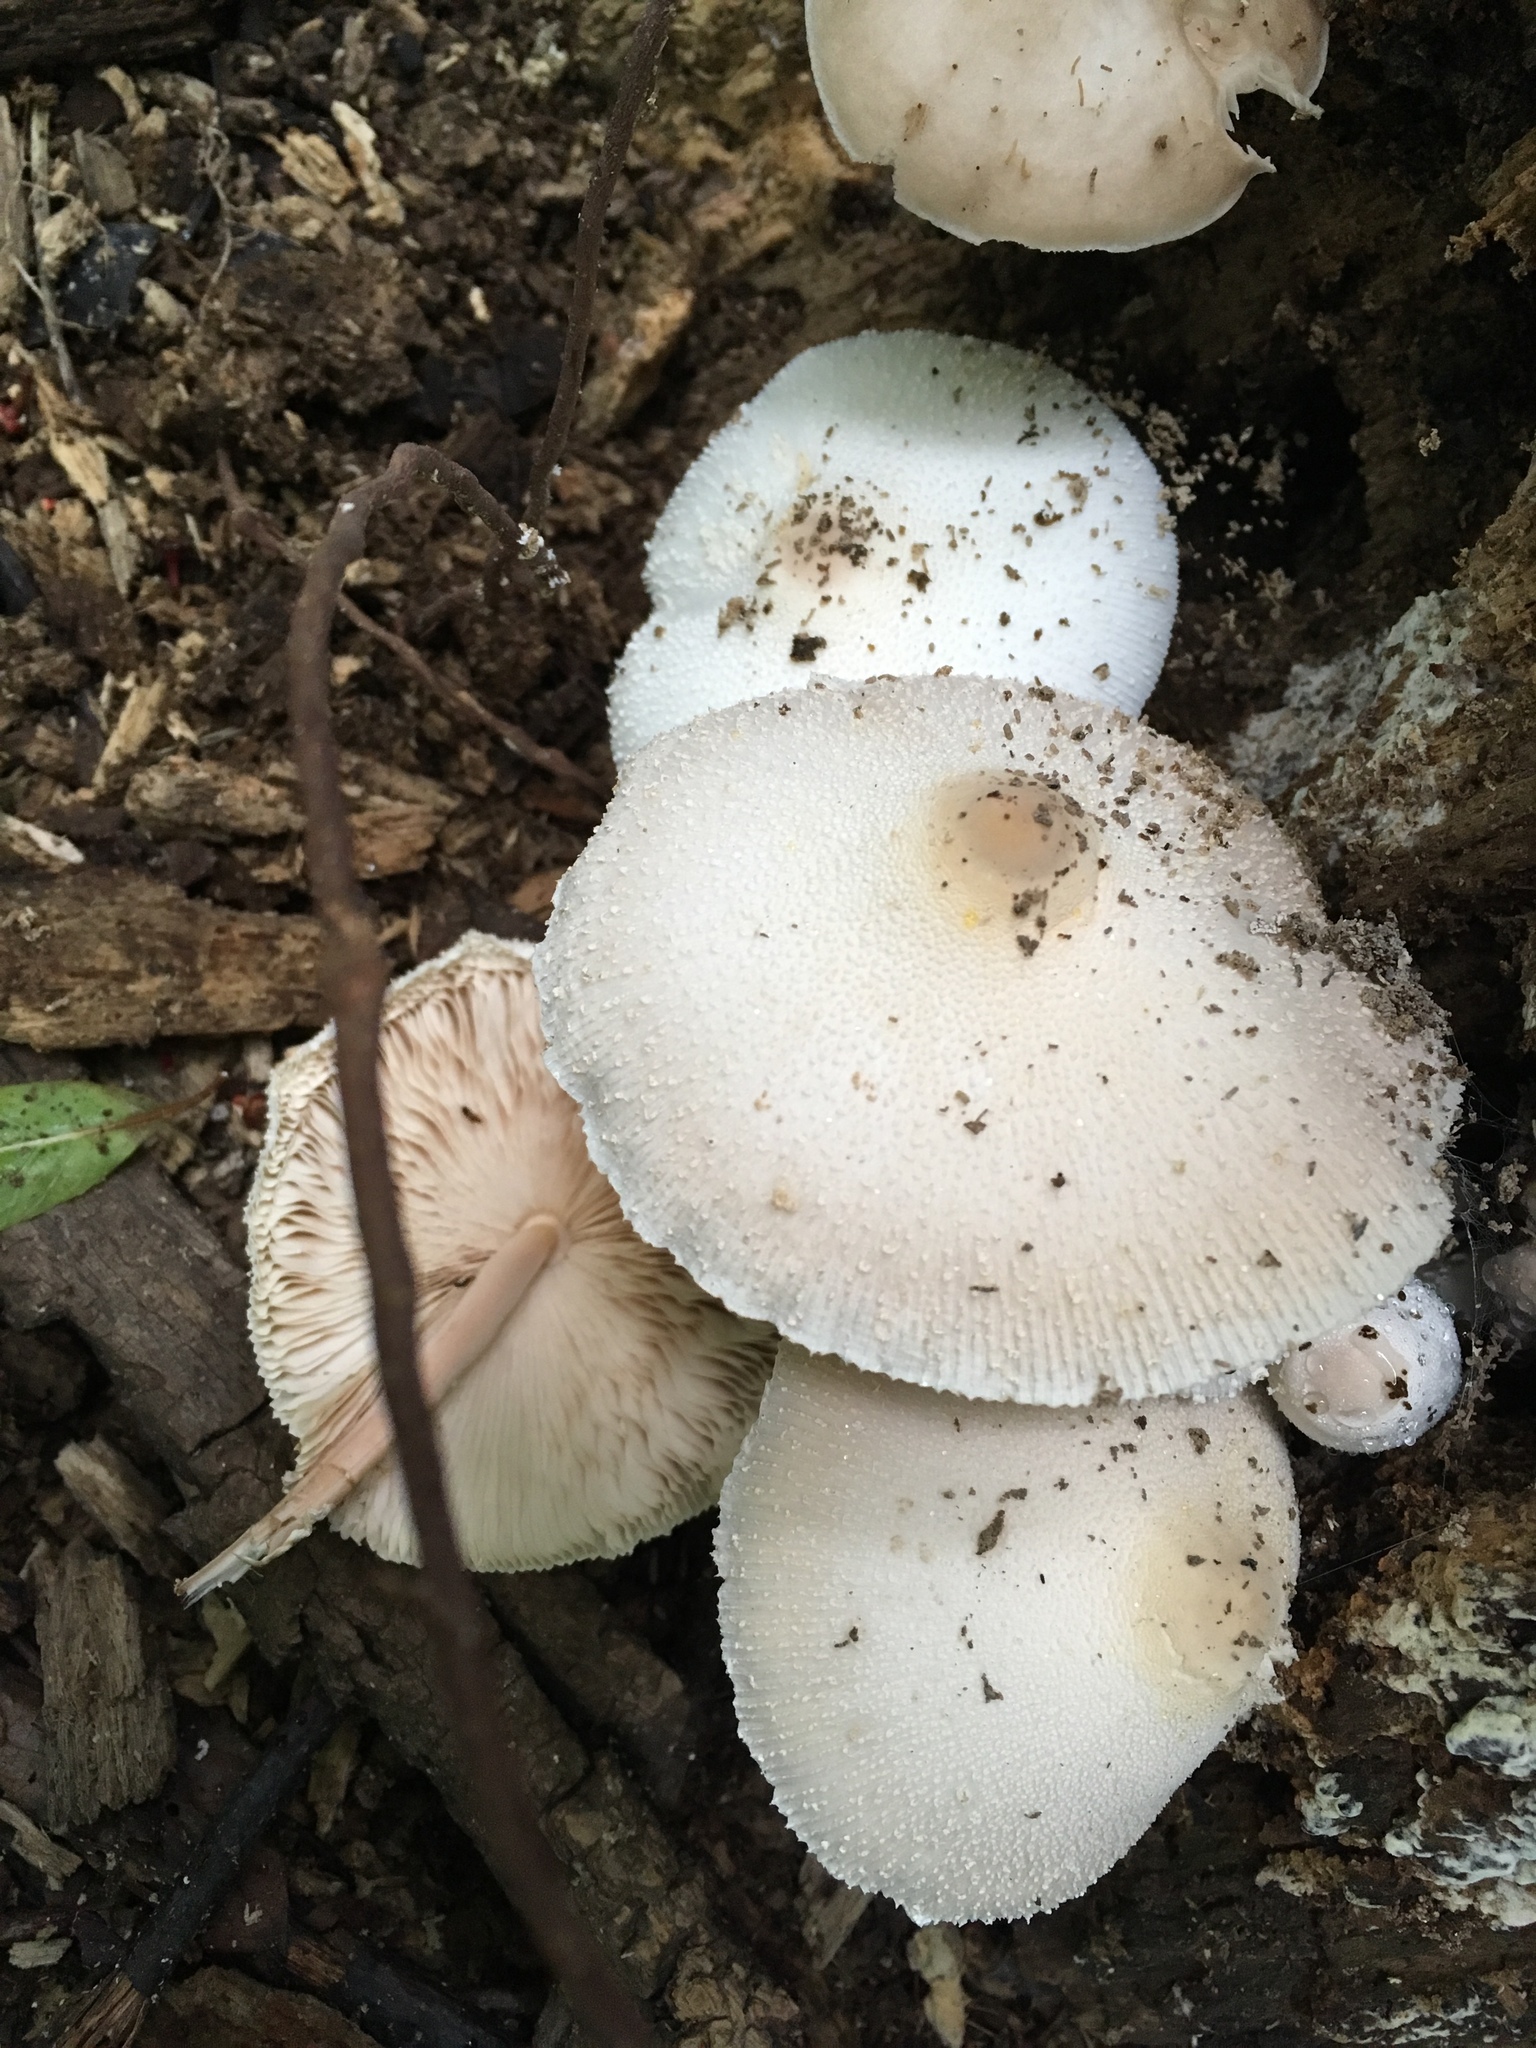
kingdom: Fungi
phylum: Basidiomycota
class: Agaricomycetes
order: Agaricales
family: Agaricaceae
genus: Leucocoprinus
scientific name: Leucocoprinus cepistipes
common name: Onion-stalk parasol
